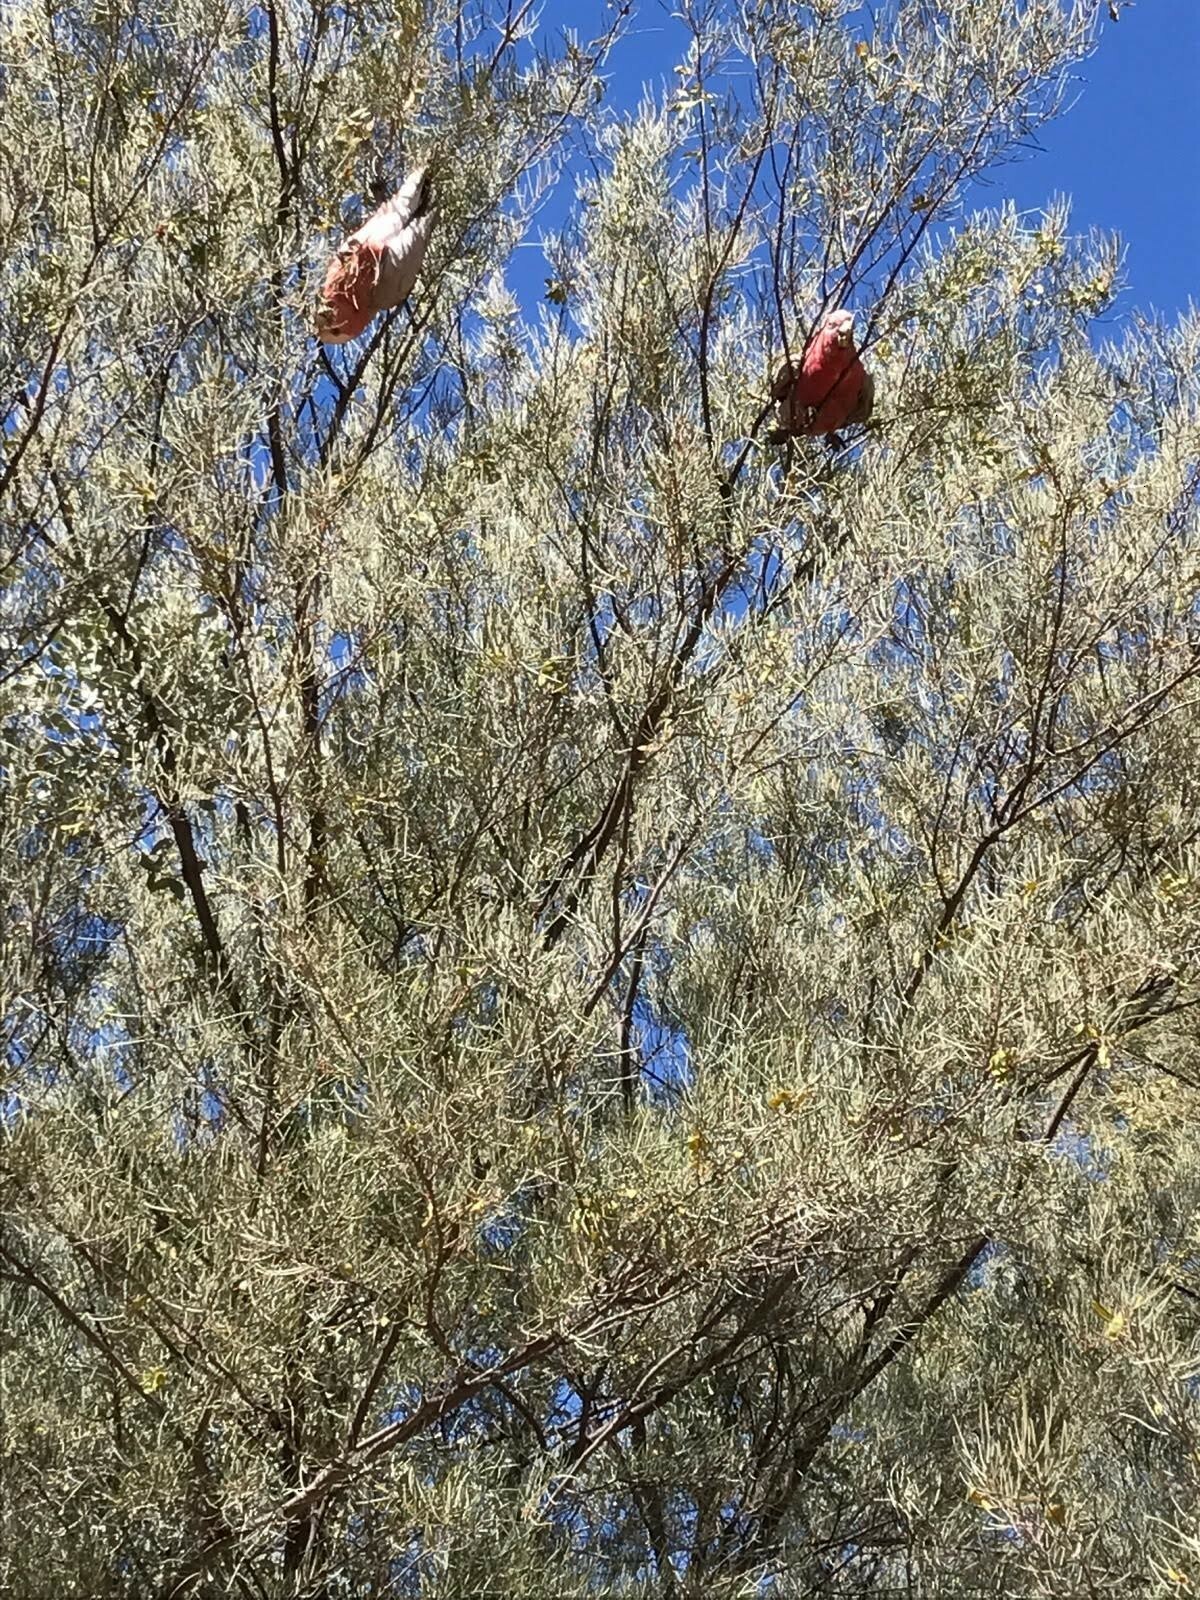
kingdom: Animalia
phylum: Chordata
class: Aves
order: Psittaciformes
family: Psittacidae
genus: Eolophus
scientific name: Eolophus roseicapilla
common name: Galah
